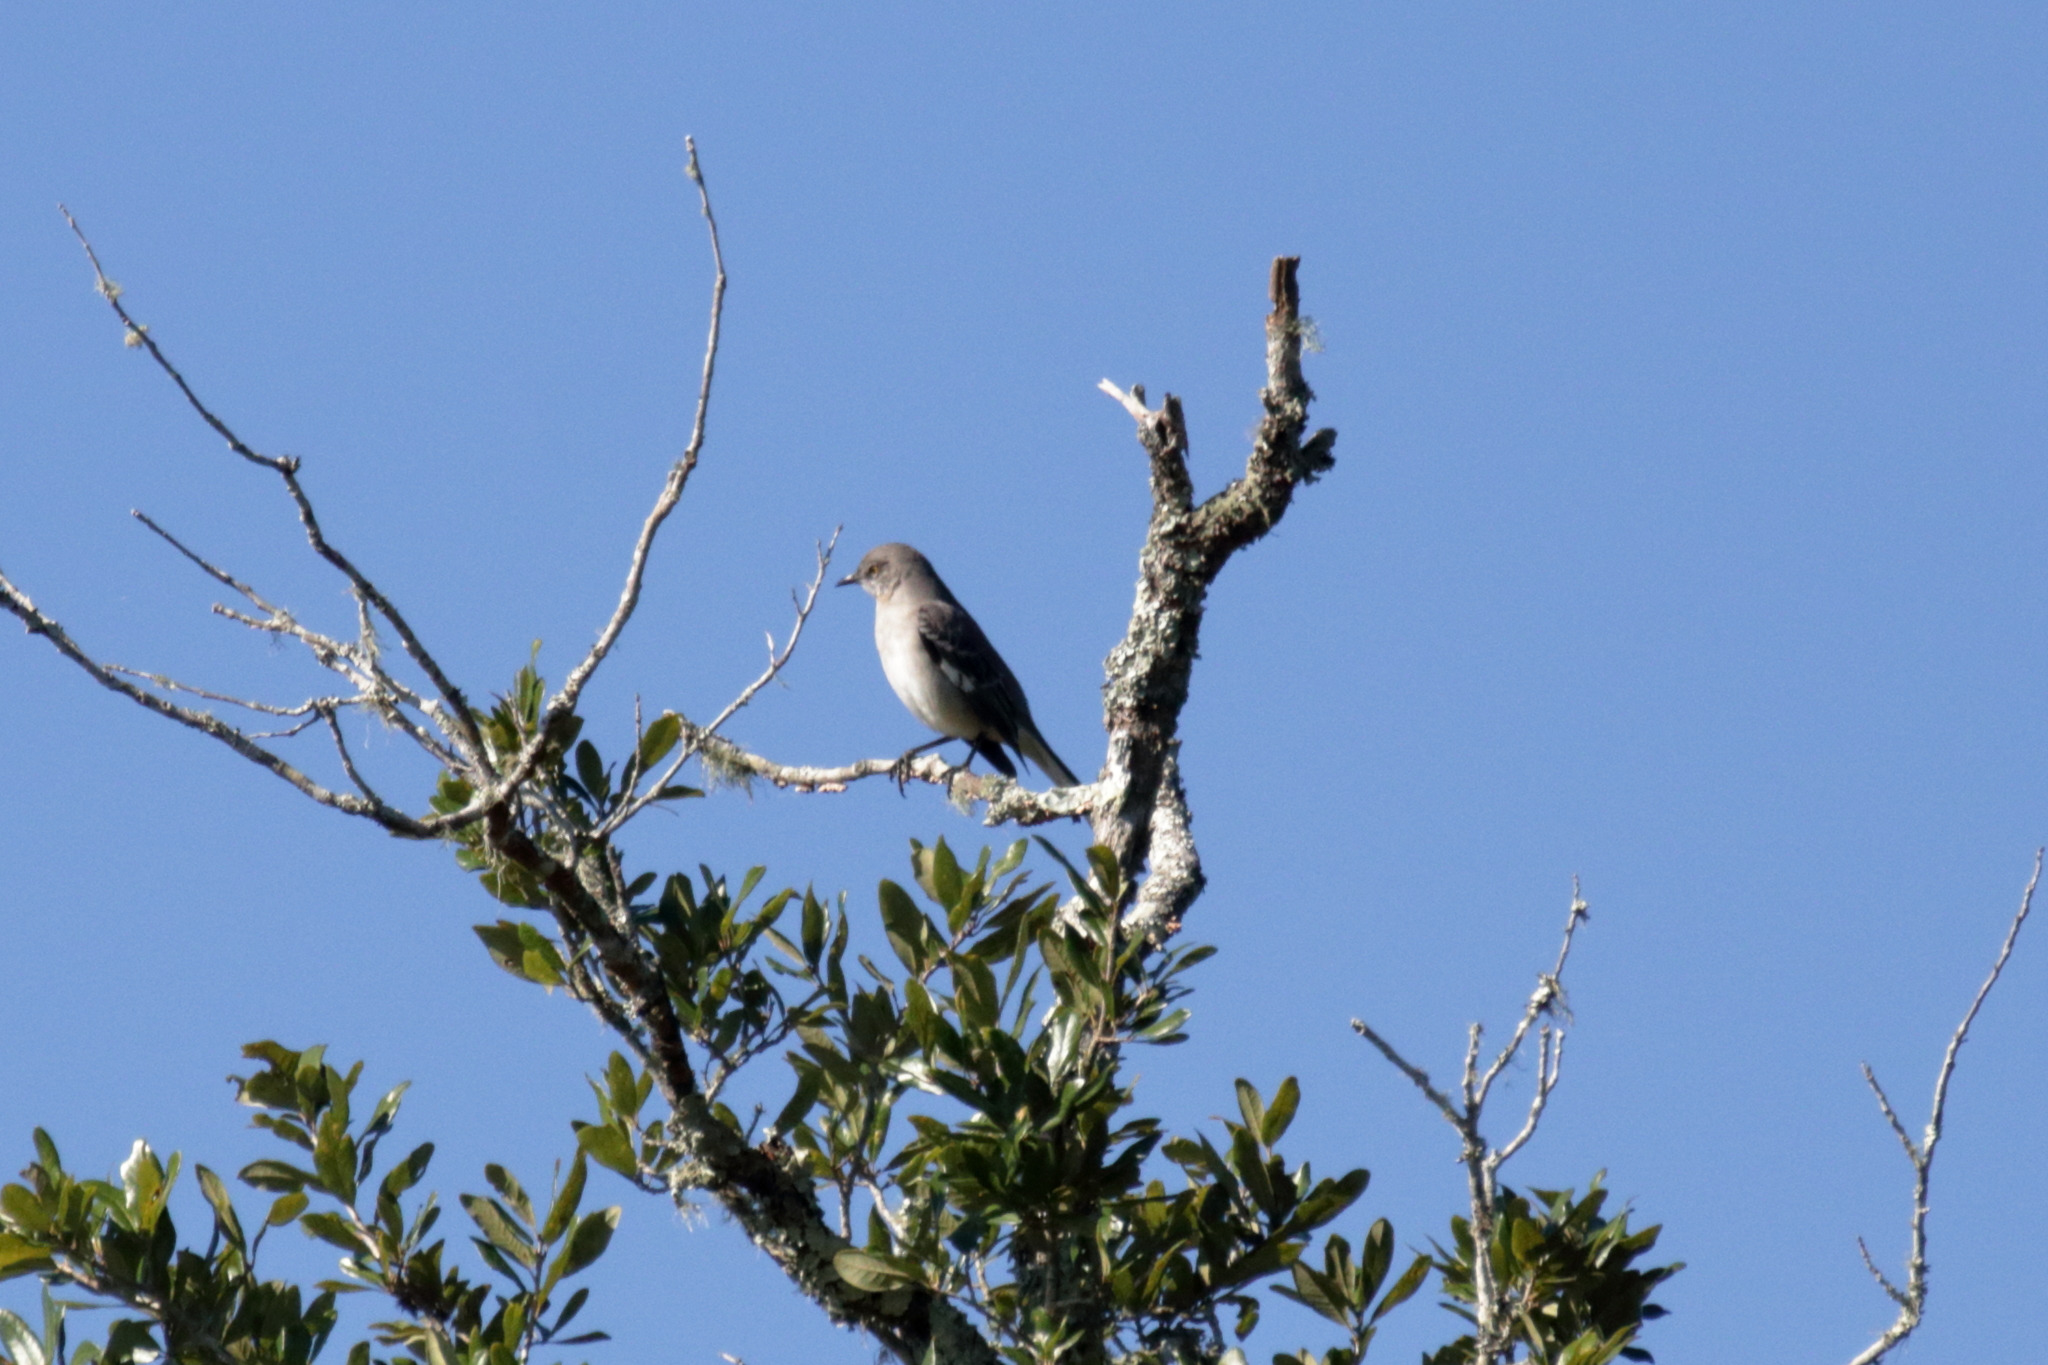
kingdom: Animalia
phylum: Chordata
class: Aves
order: Passeriformes
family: Mimidae
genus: Mimus
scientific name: Mimus polyglottos
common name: Northern mockingbird
